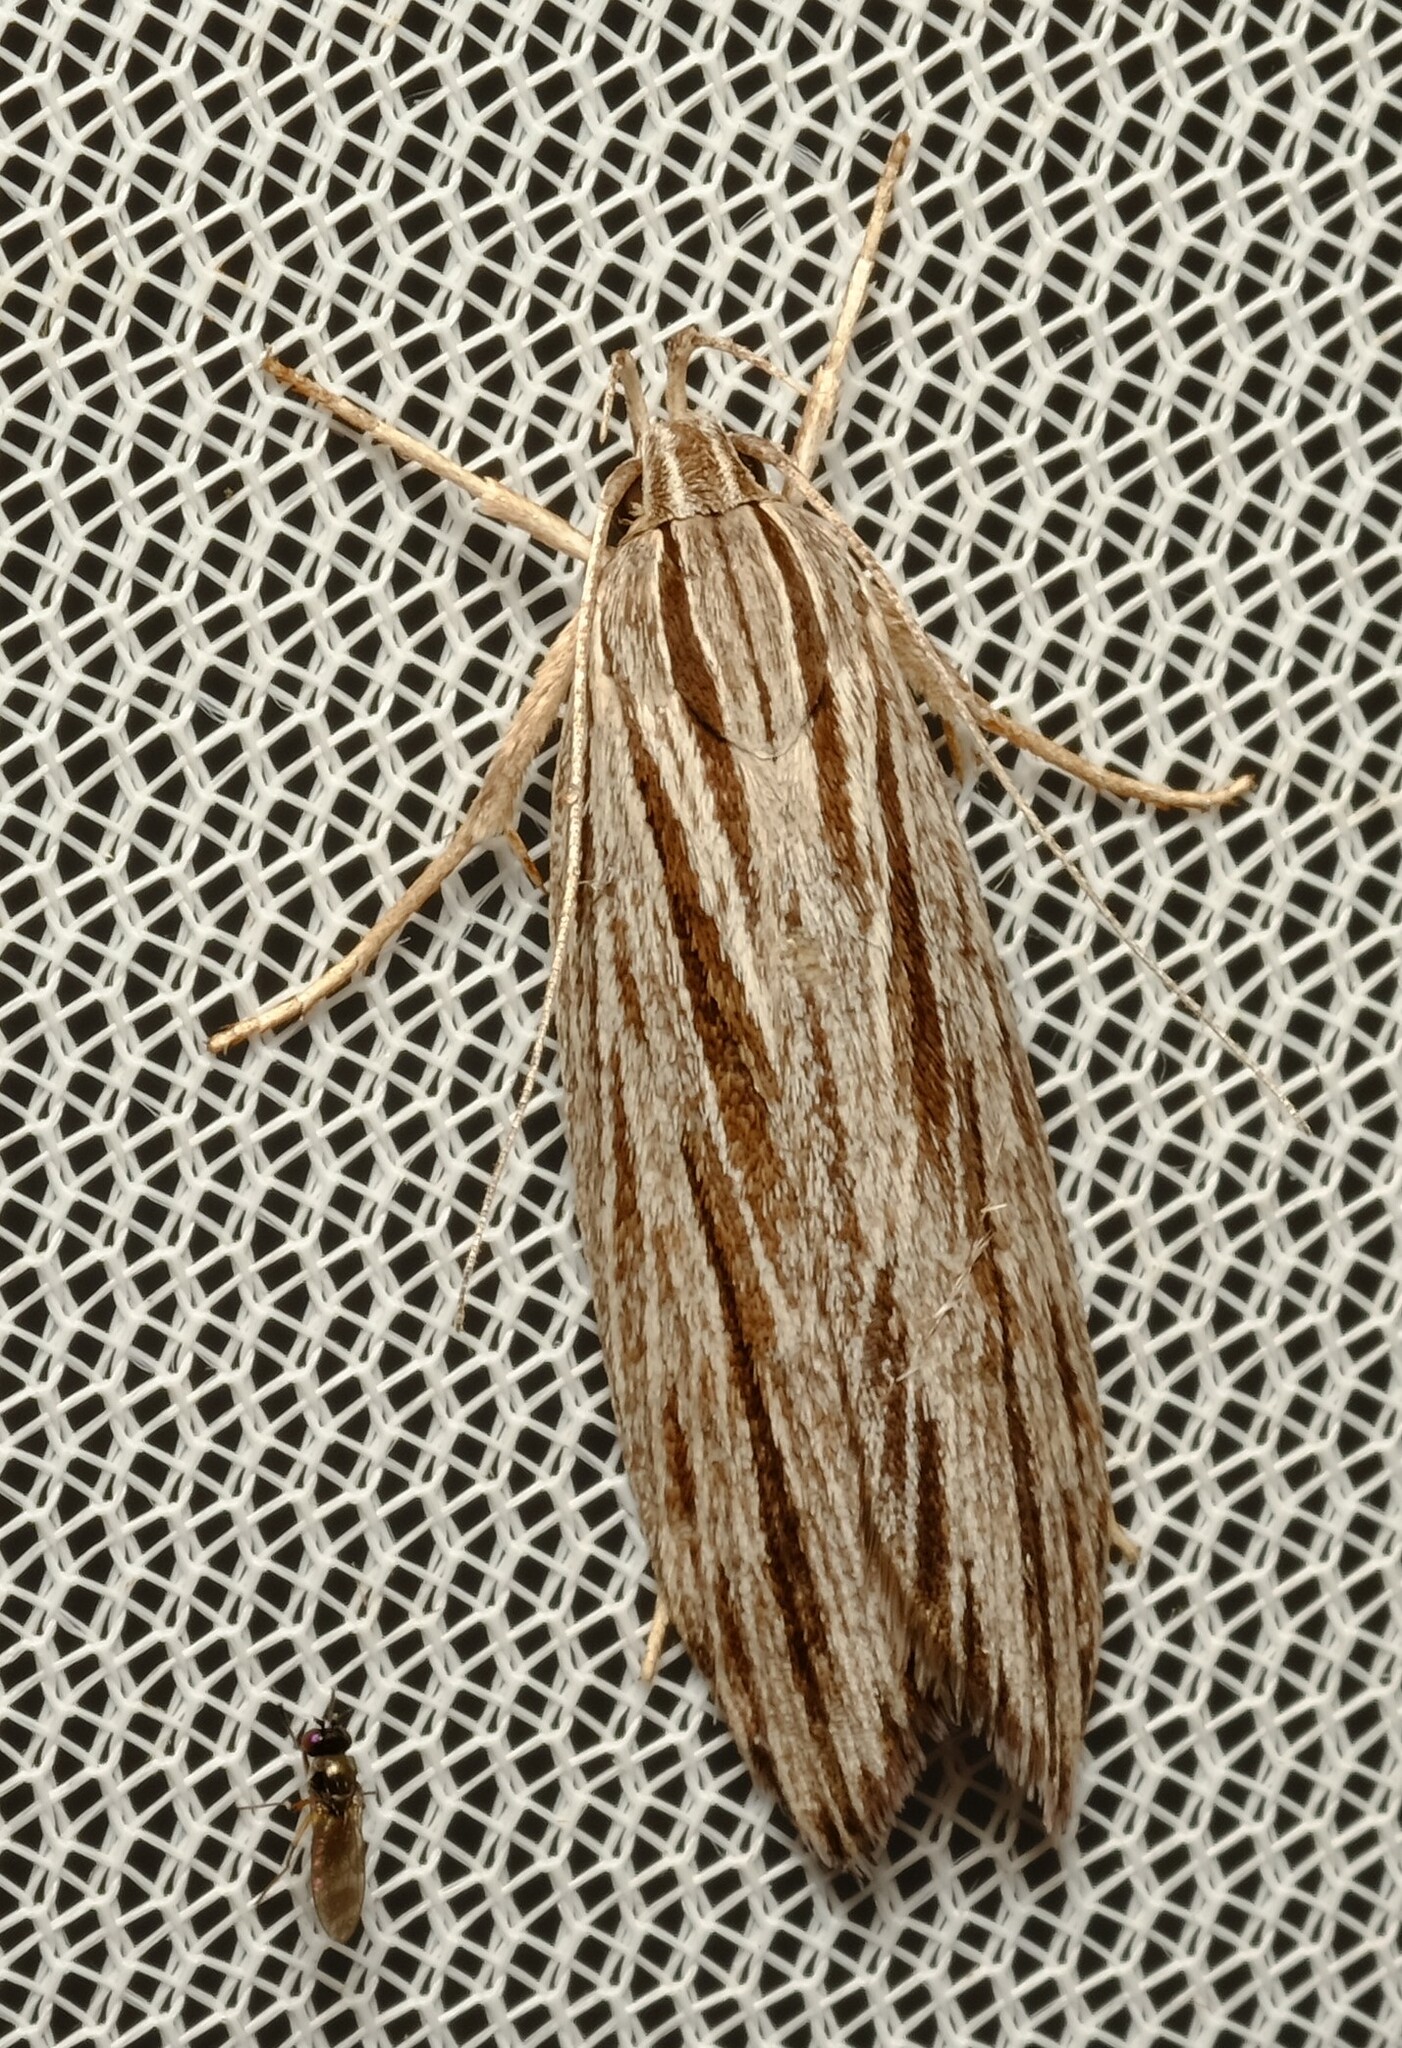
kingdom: Animalia
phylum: Arthropoda
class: Insecta
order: Lepidoptera
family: Xyloryctidae
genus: Leistarcha
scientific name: Leistarcha scitissimella
